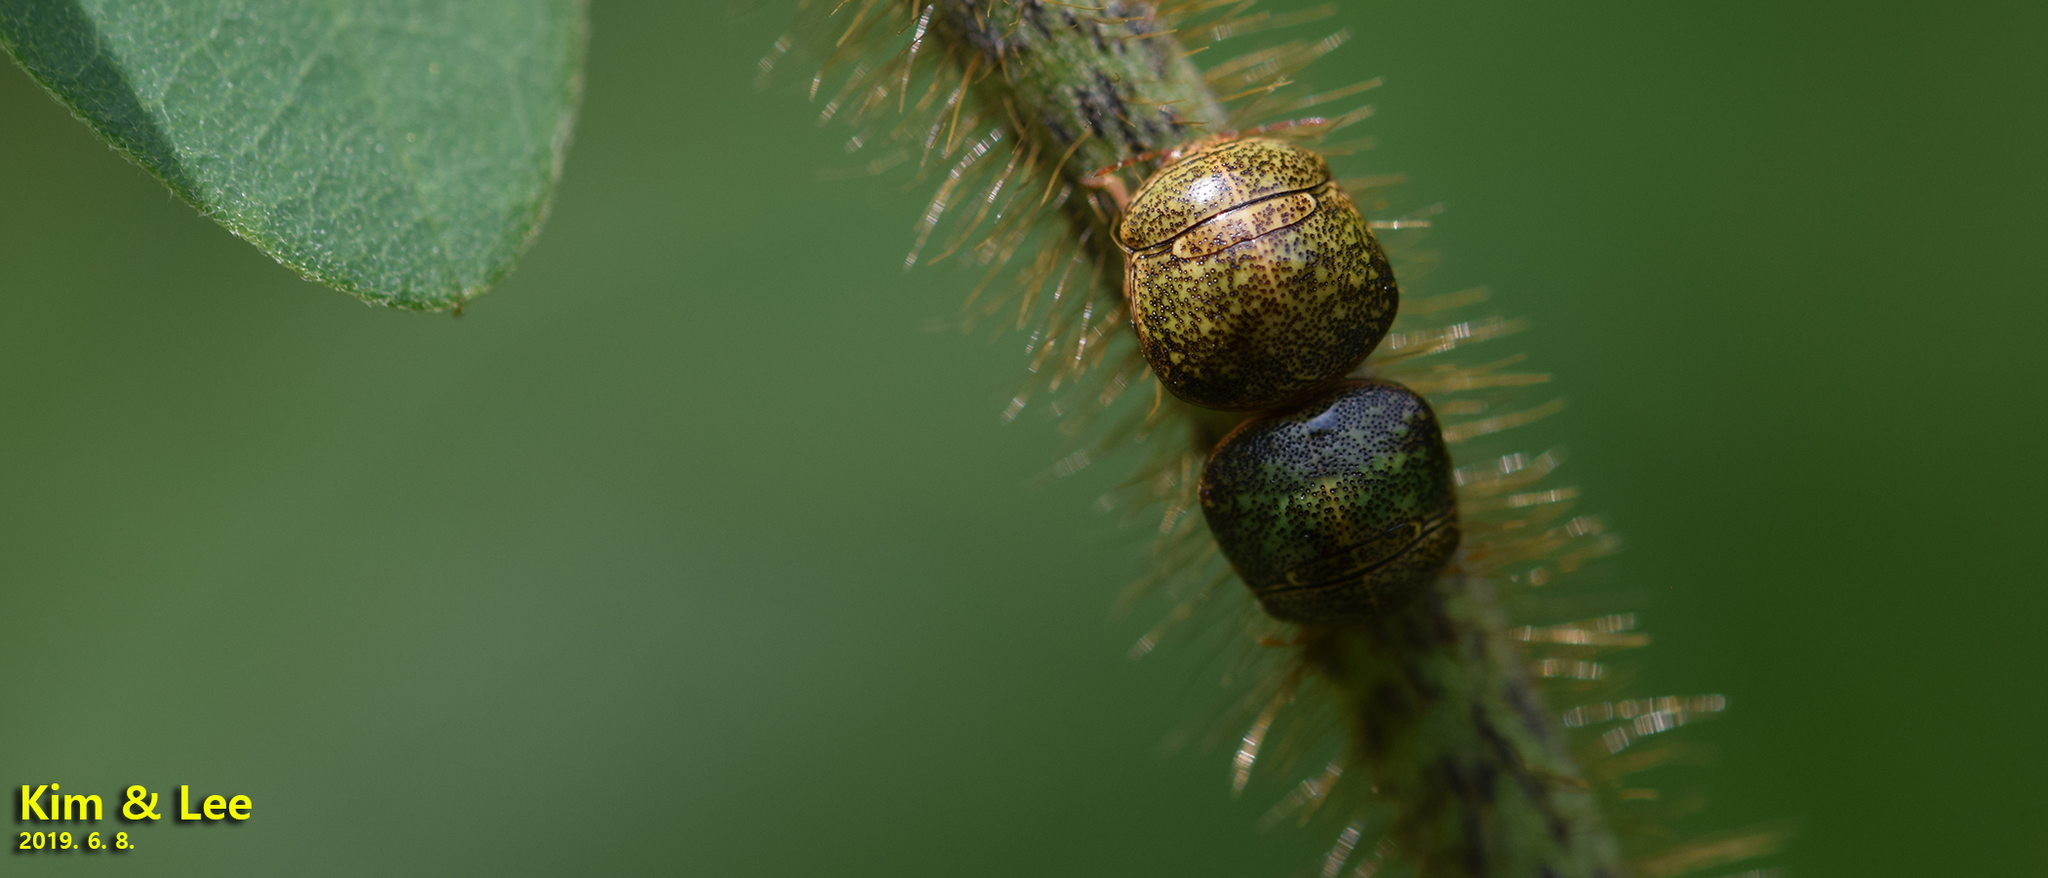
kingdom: Animalia
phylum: Arthropoda
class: Insecta
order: Hemiptera
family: Plataspidae
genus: Megacopta
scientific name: Megacopta cribraria
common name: Bean plataspid
